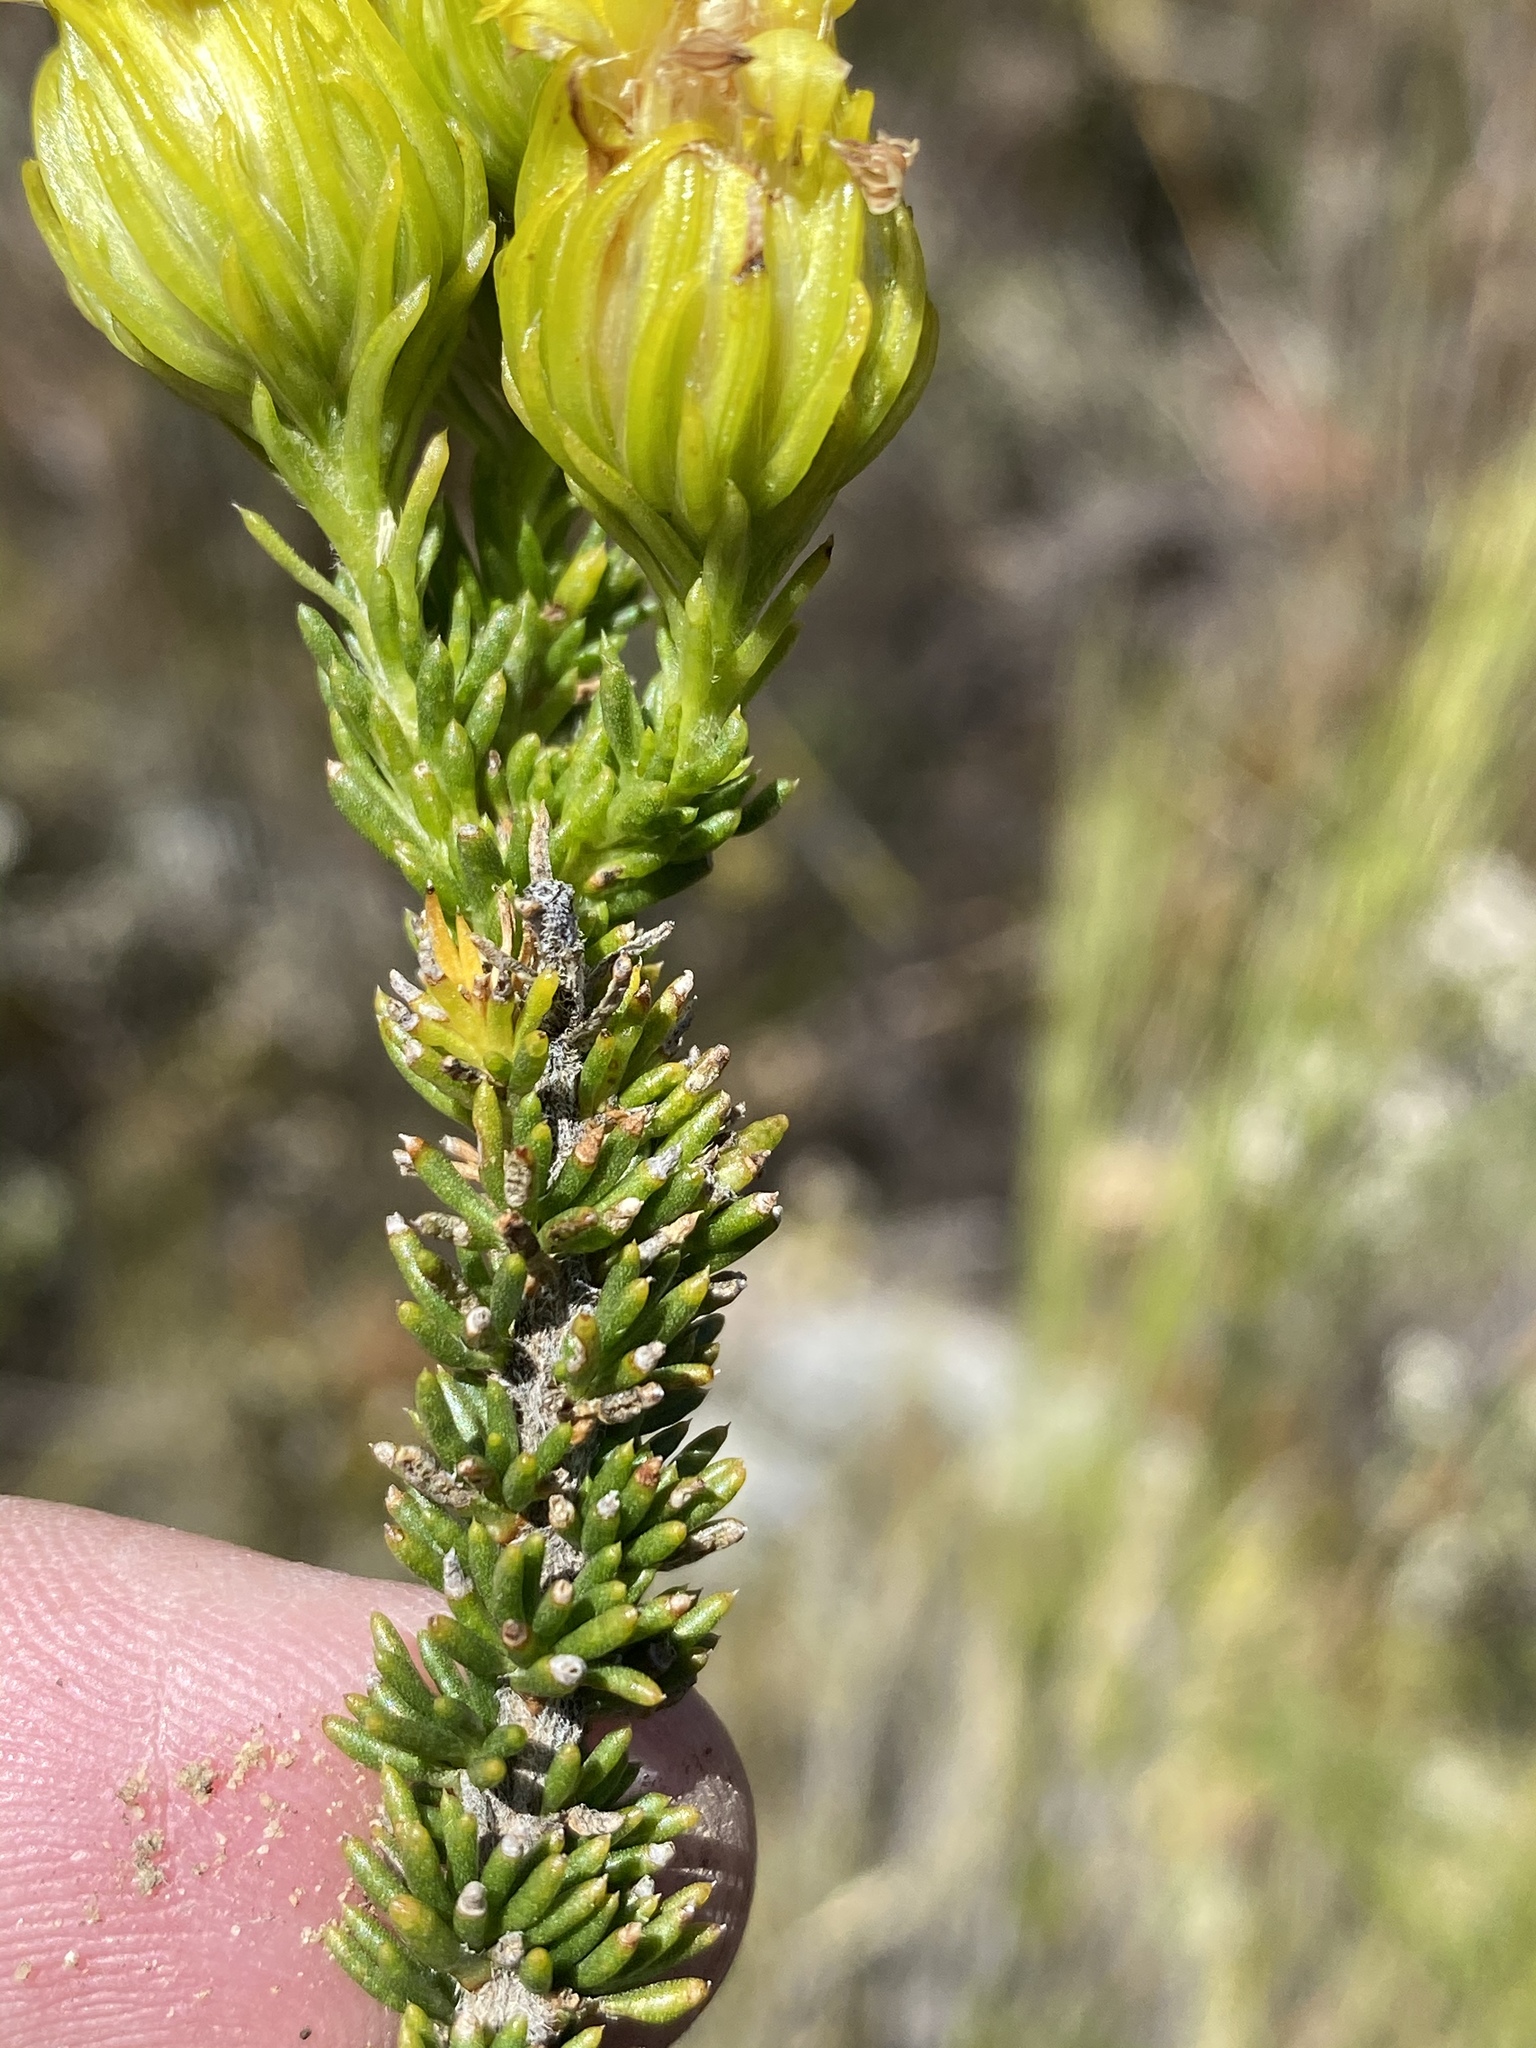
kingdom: Plantae
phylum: Tracheophyta
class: Magnoliopsida
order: Asterales
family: Asteraceae
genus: Pteronia
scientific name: Pteronia camphorata
